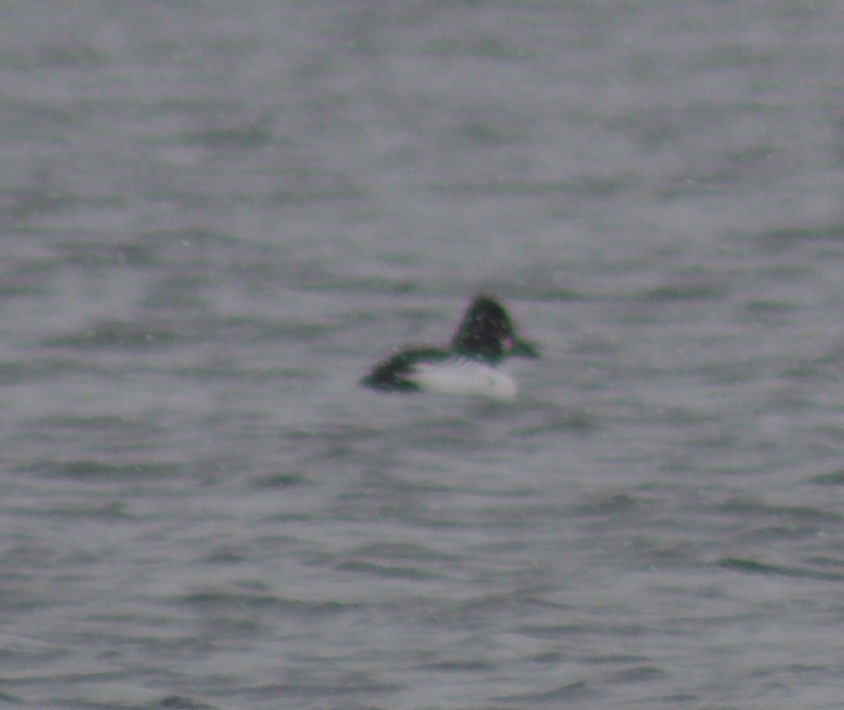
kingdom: Animalia
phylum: Chordata
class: Aves
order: Anseriformes
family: Anatidae
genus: Bucephala
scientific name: Bucephala clangula
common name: Common goldeneye
